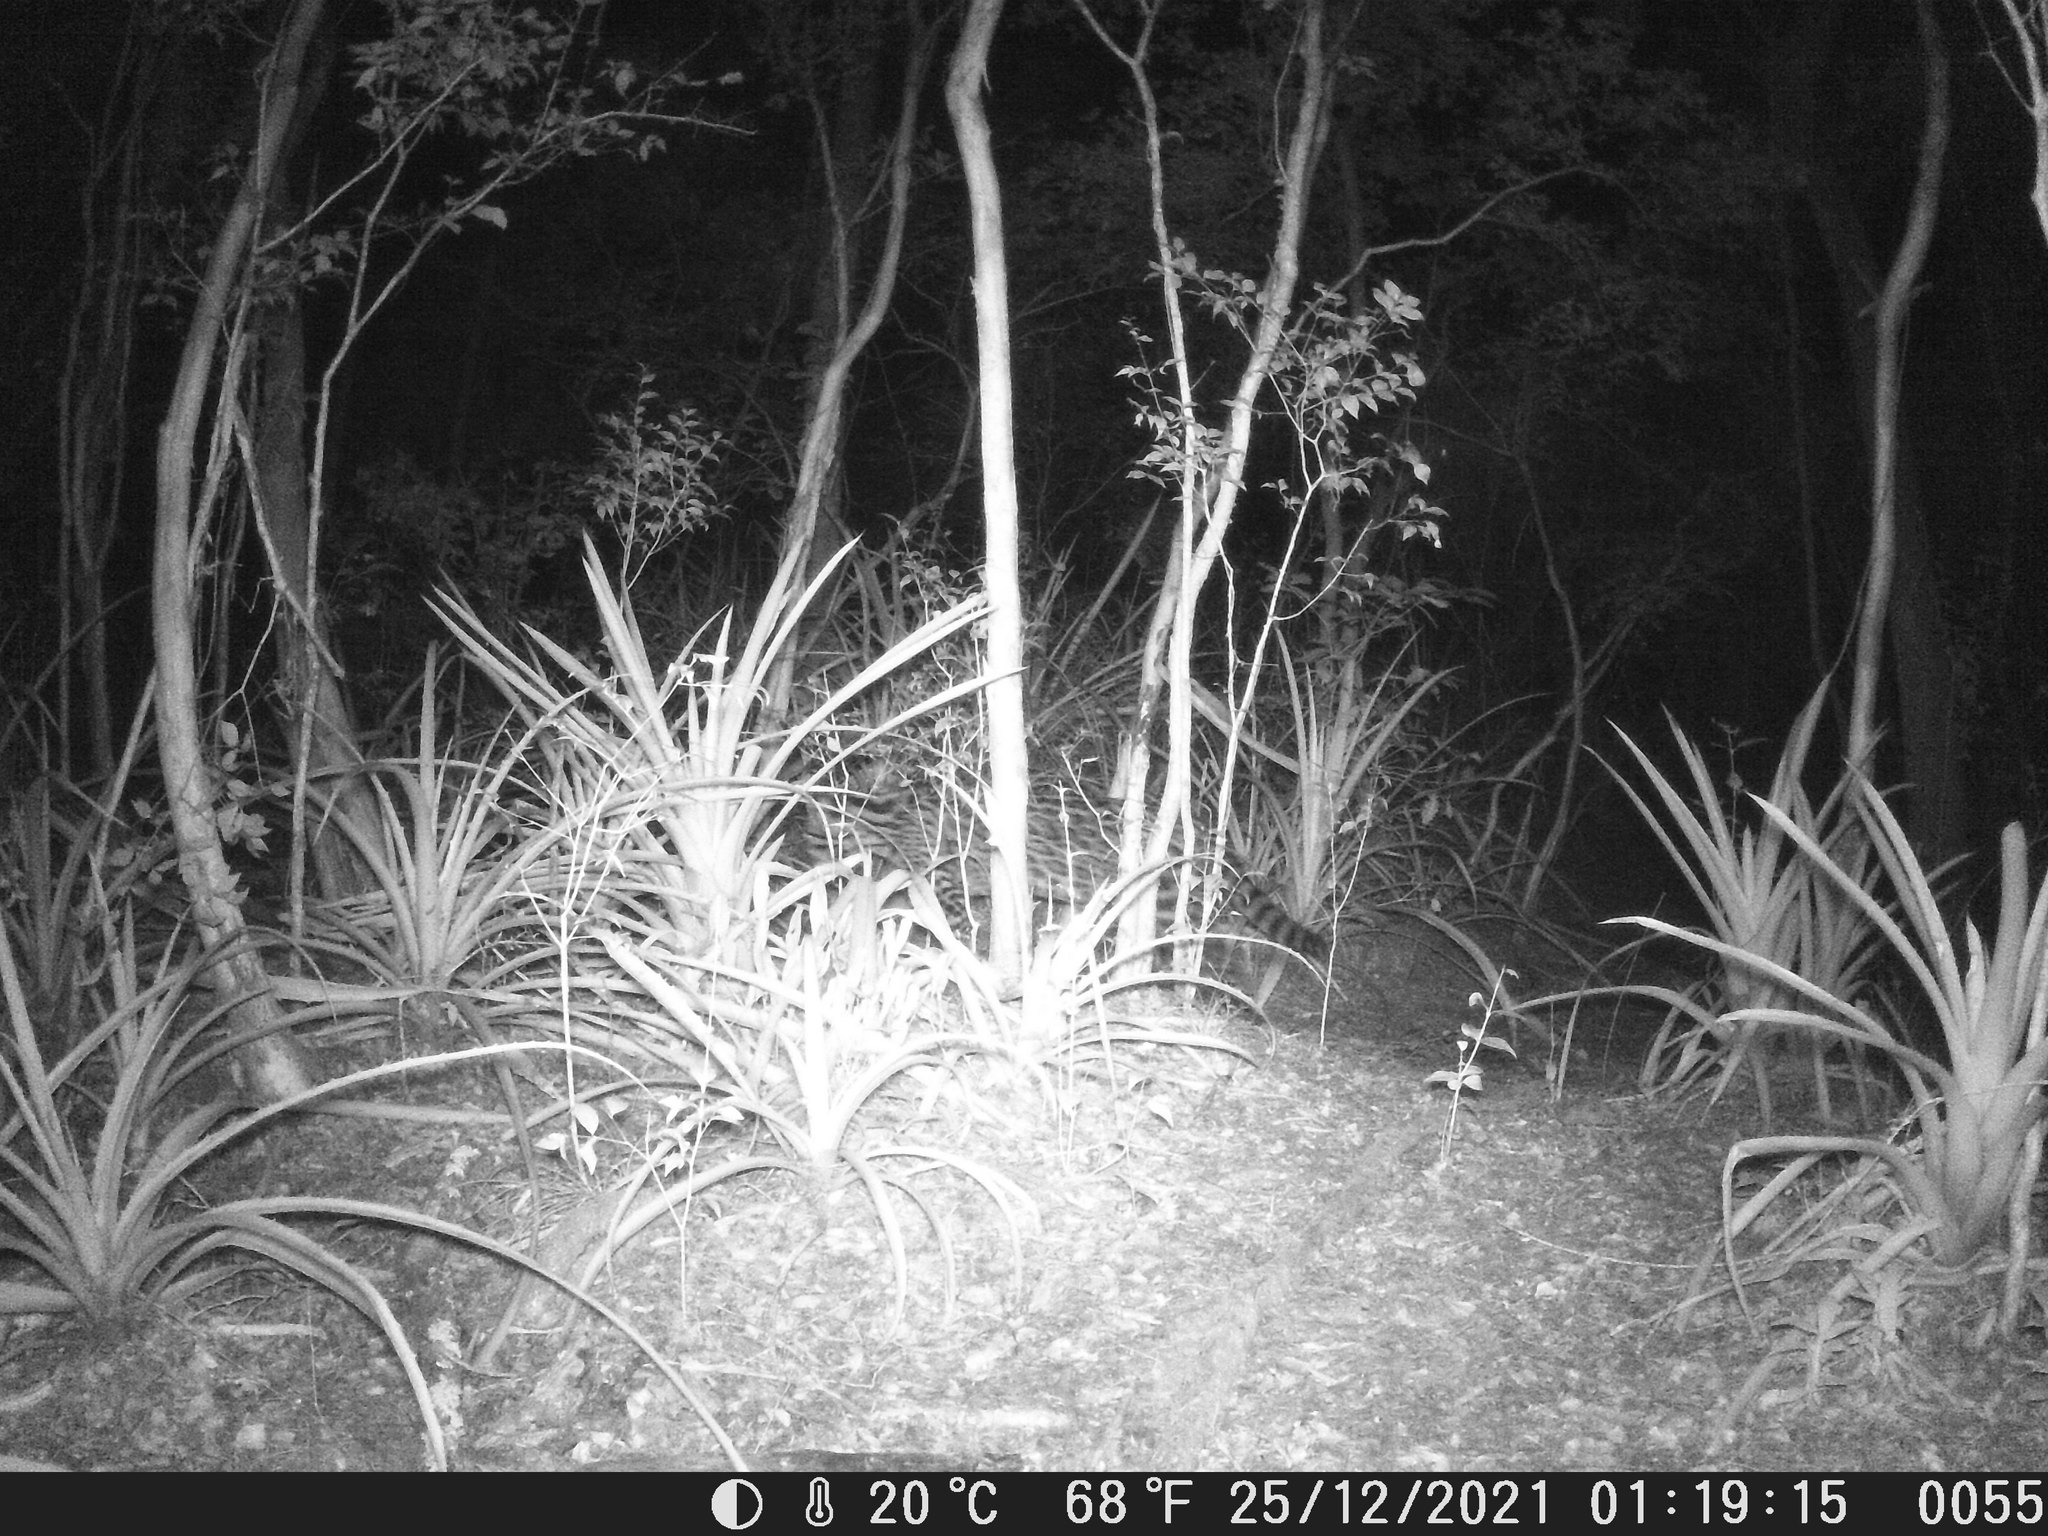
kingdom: Animalia
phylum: Chordata
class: Mammalia
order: Carnivora
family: Felidae
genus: Leopardus
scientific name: Leopardus pardalis
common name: Ocelot
